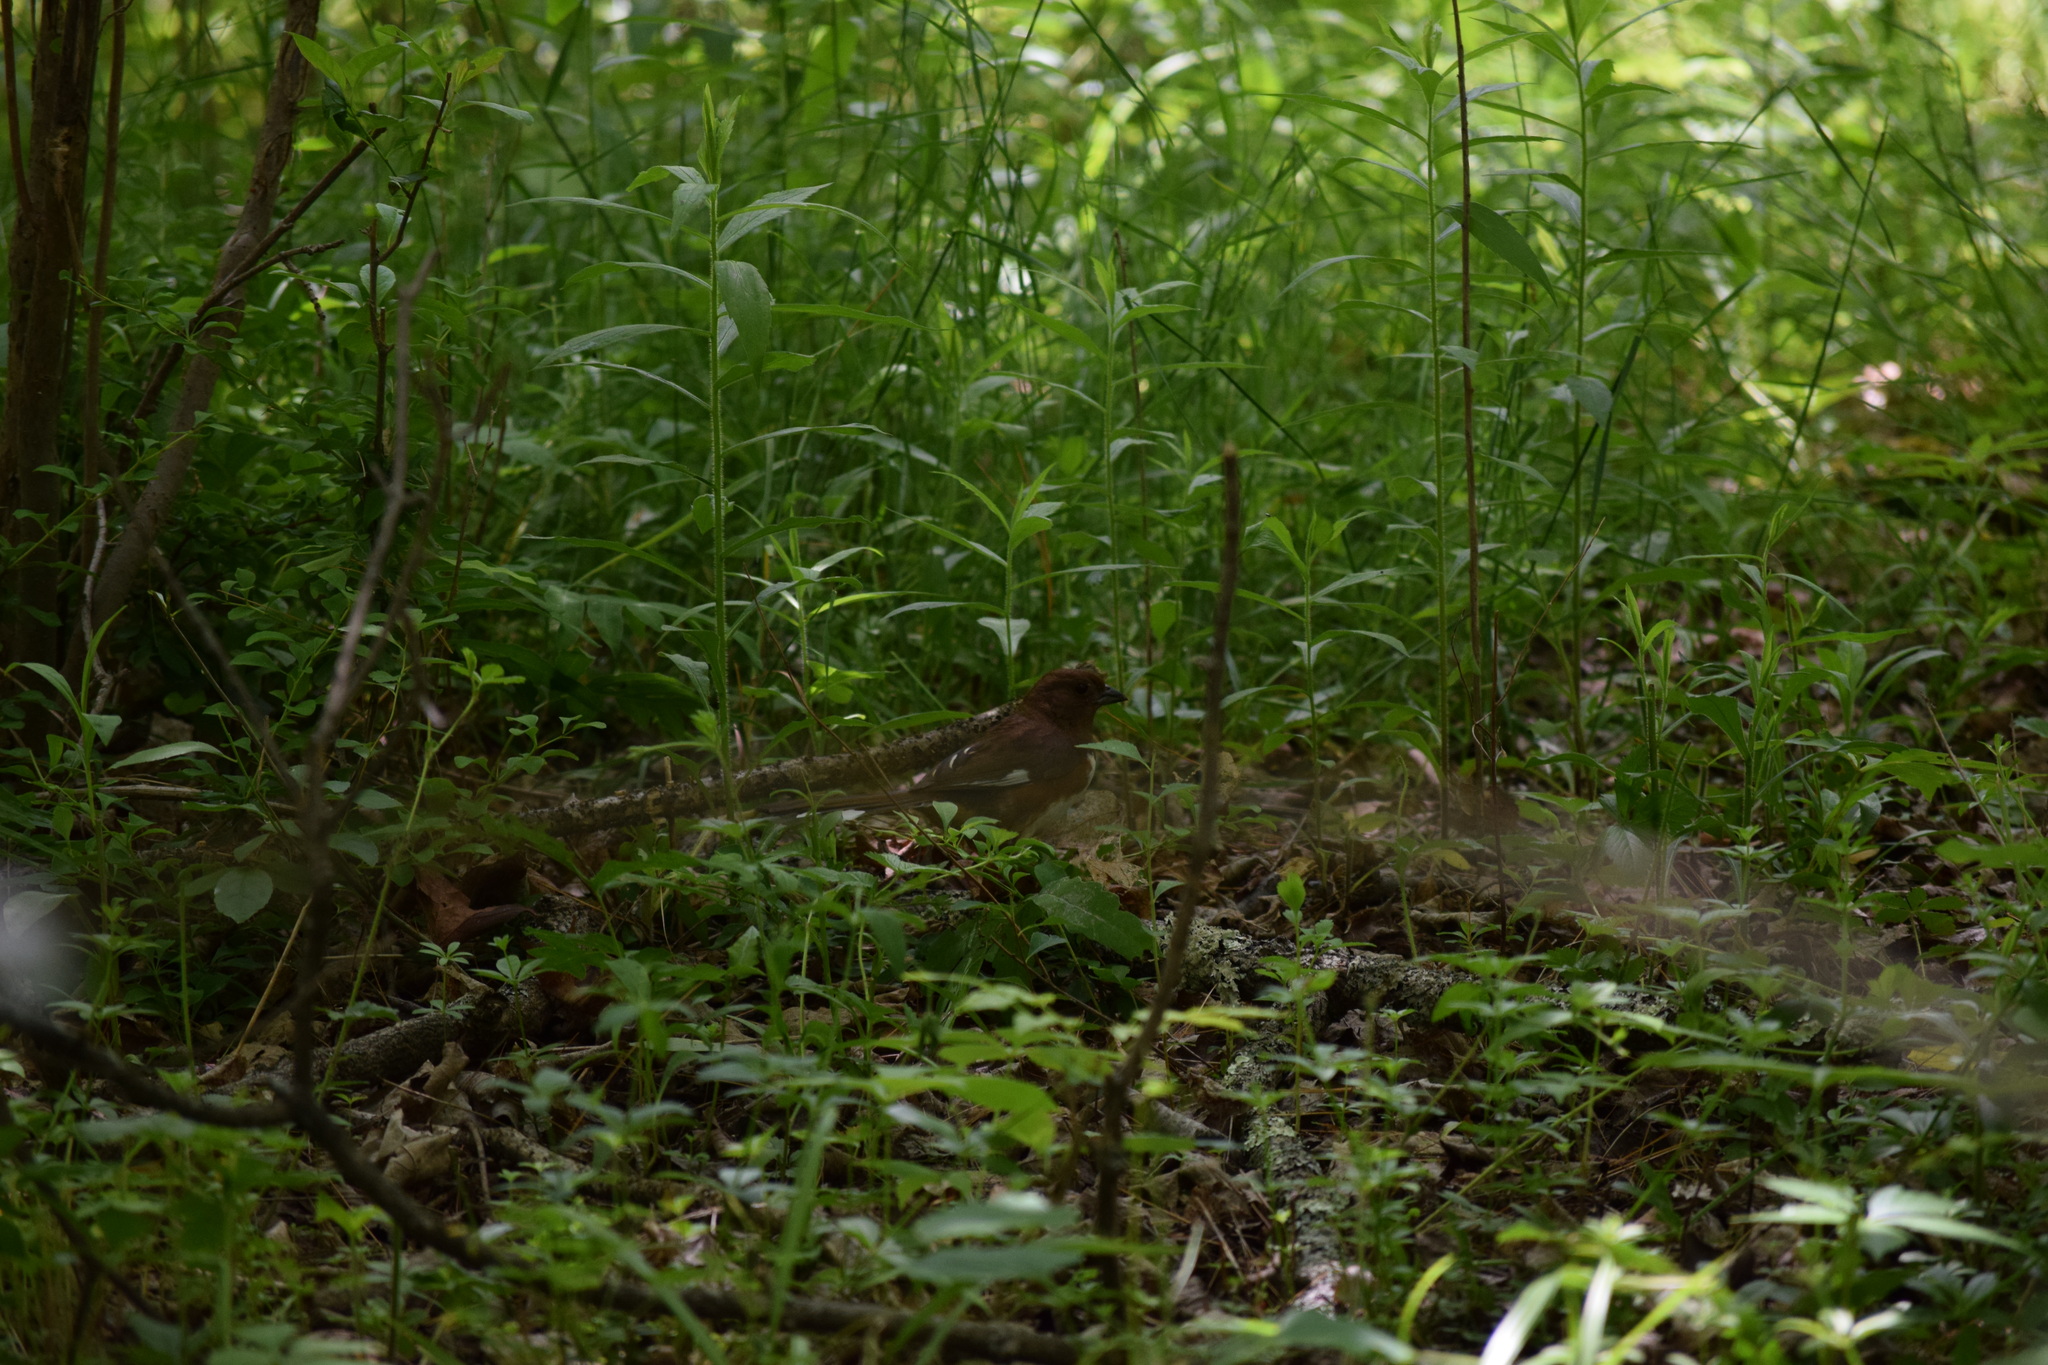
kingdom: Animalia
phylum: Chordata
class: Aves
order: Passeriformes
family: Passerellidae
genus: Pipilo
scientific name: Pipilo erythrophthalmus
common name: Eastern towhee
